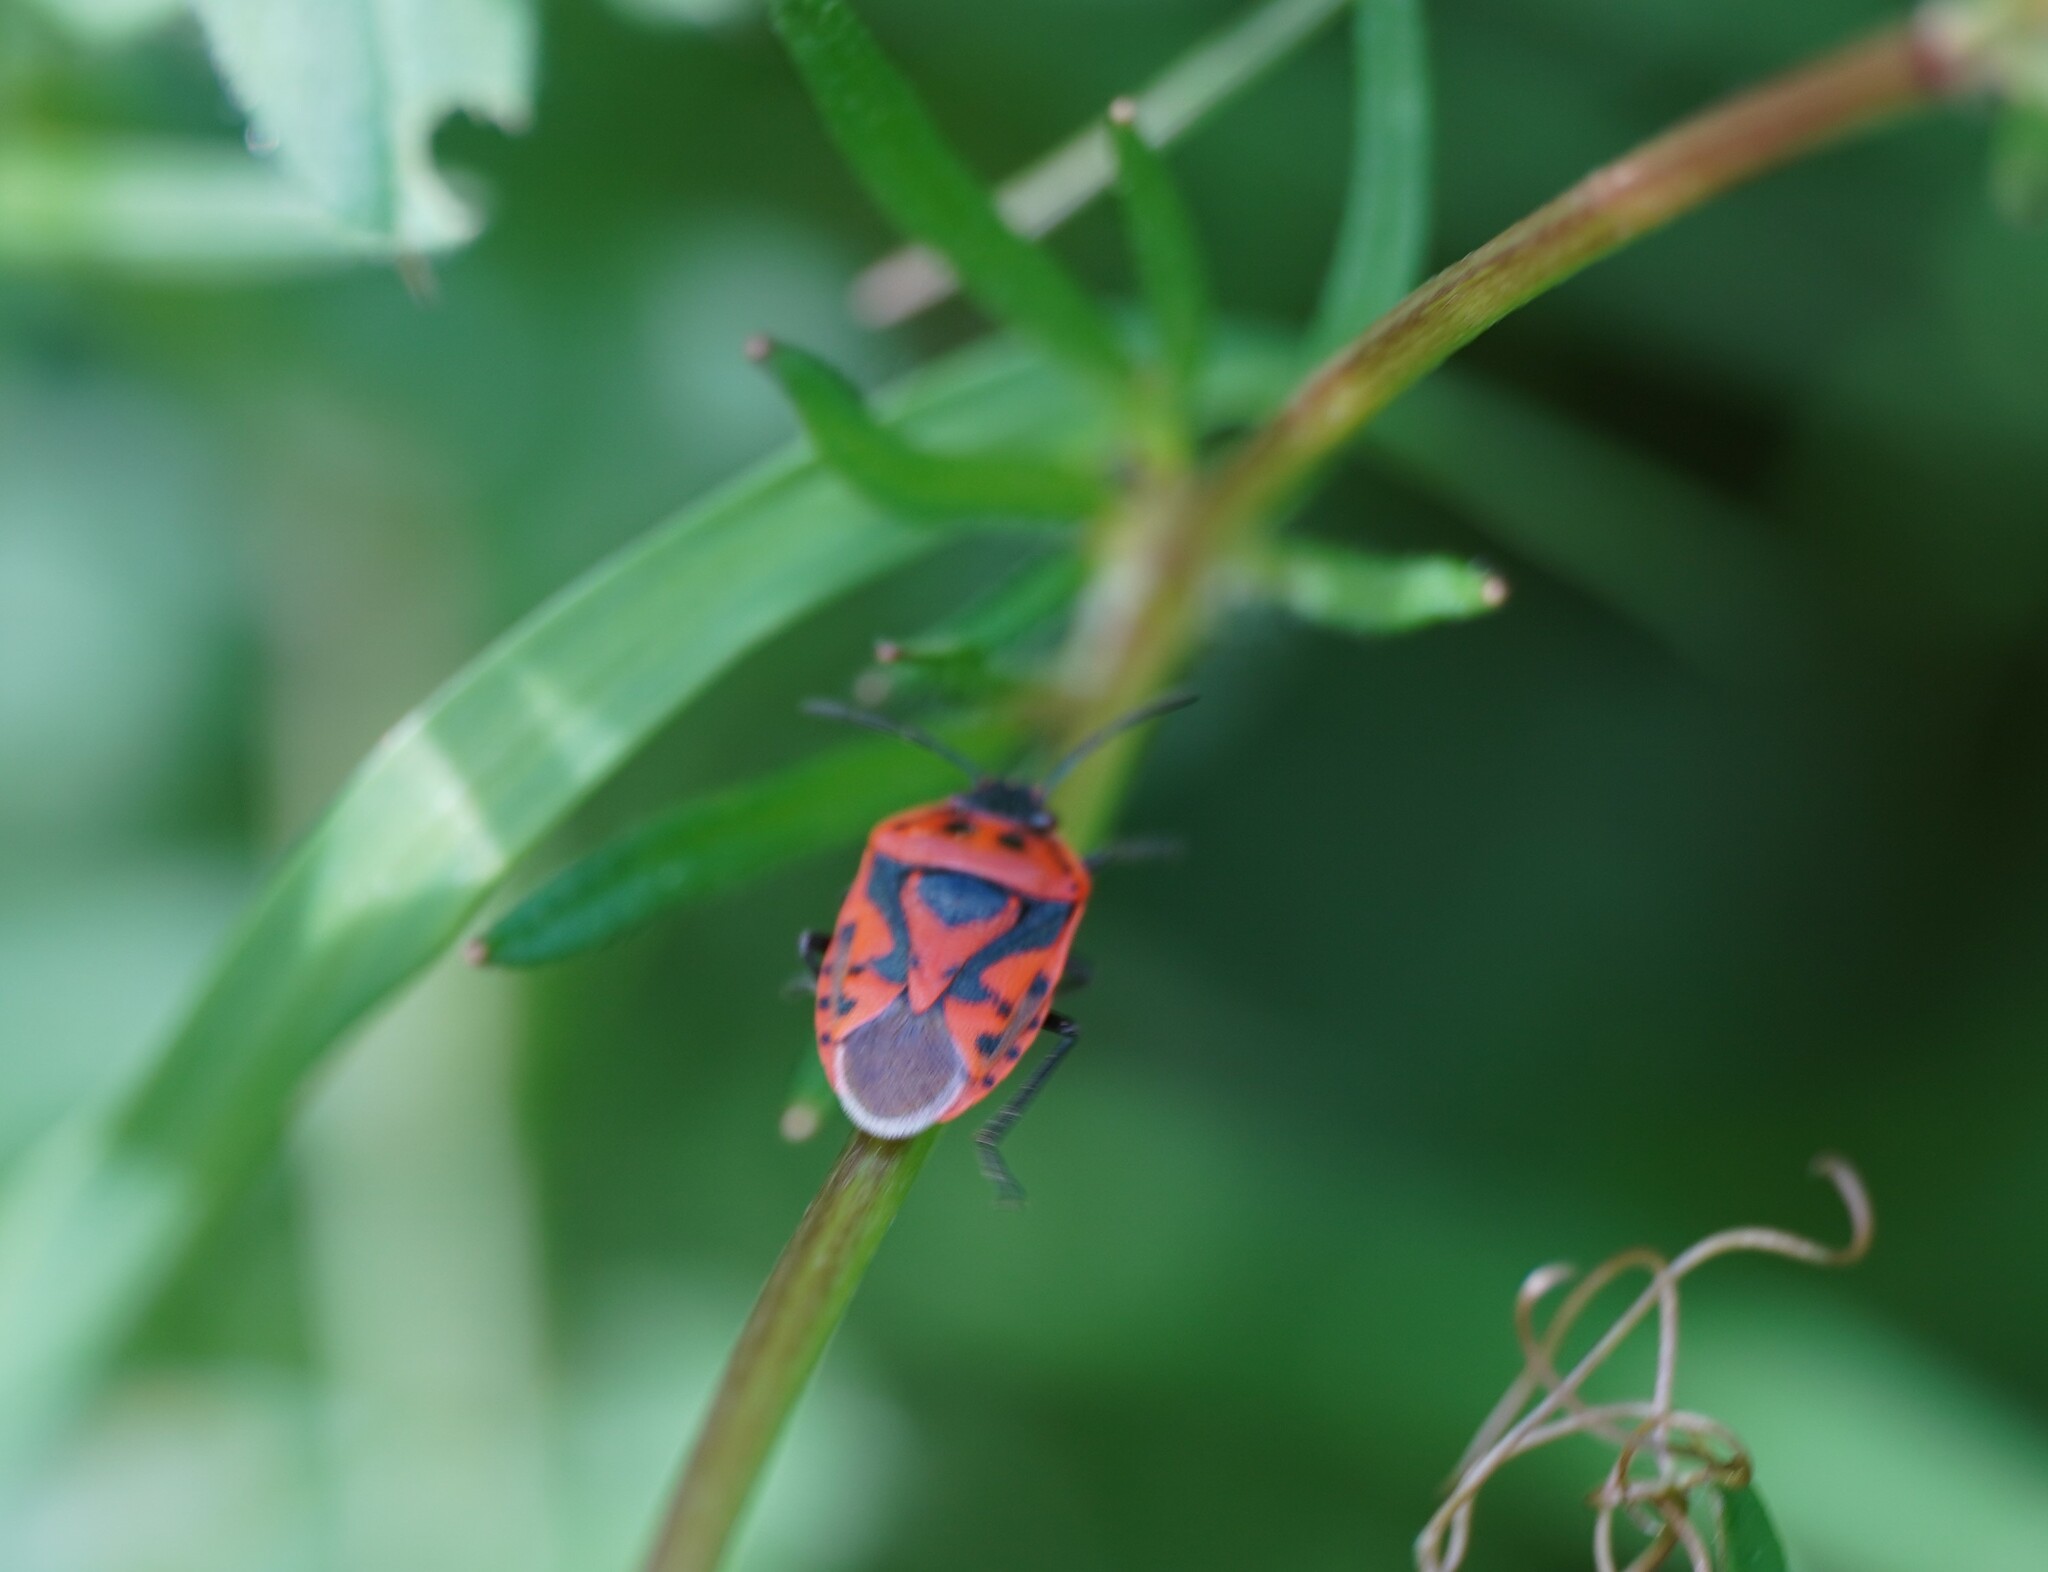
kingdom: Animalia
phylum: Arthropoda
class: Insecta
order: Hemiptera
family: Pentatomidae
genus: Eurydema
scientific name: Eurydema ornata
